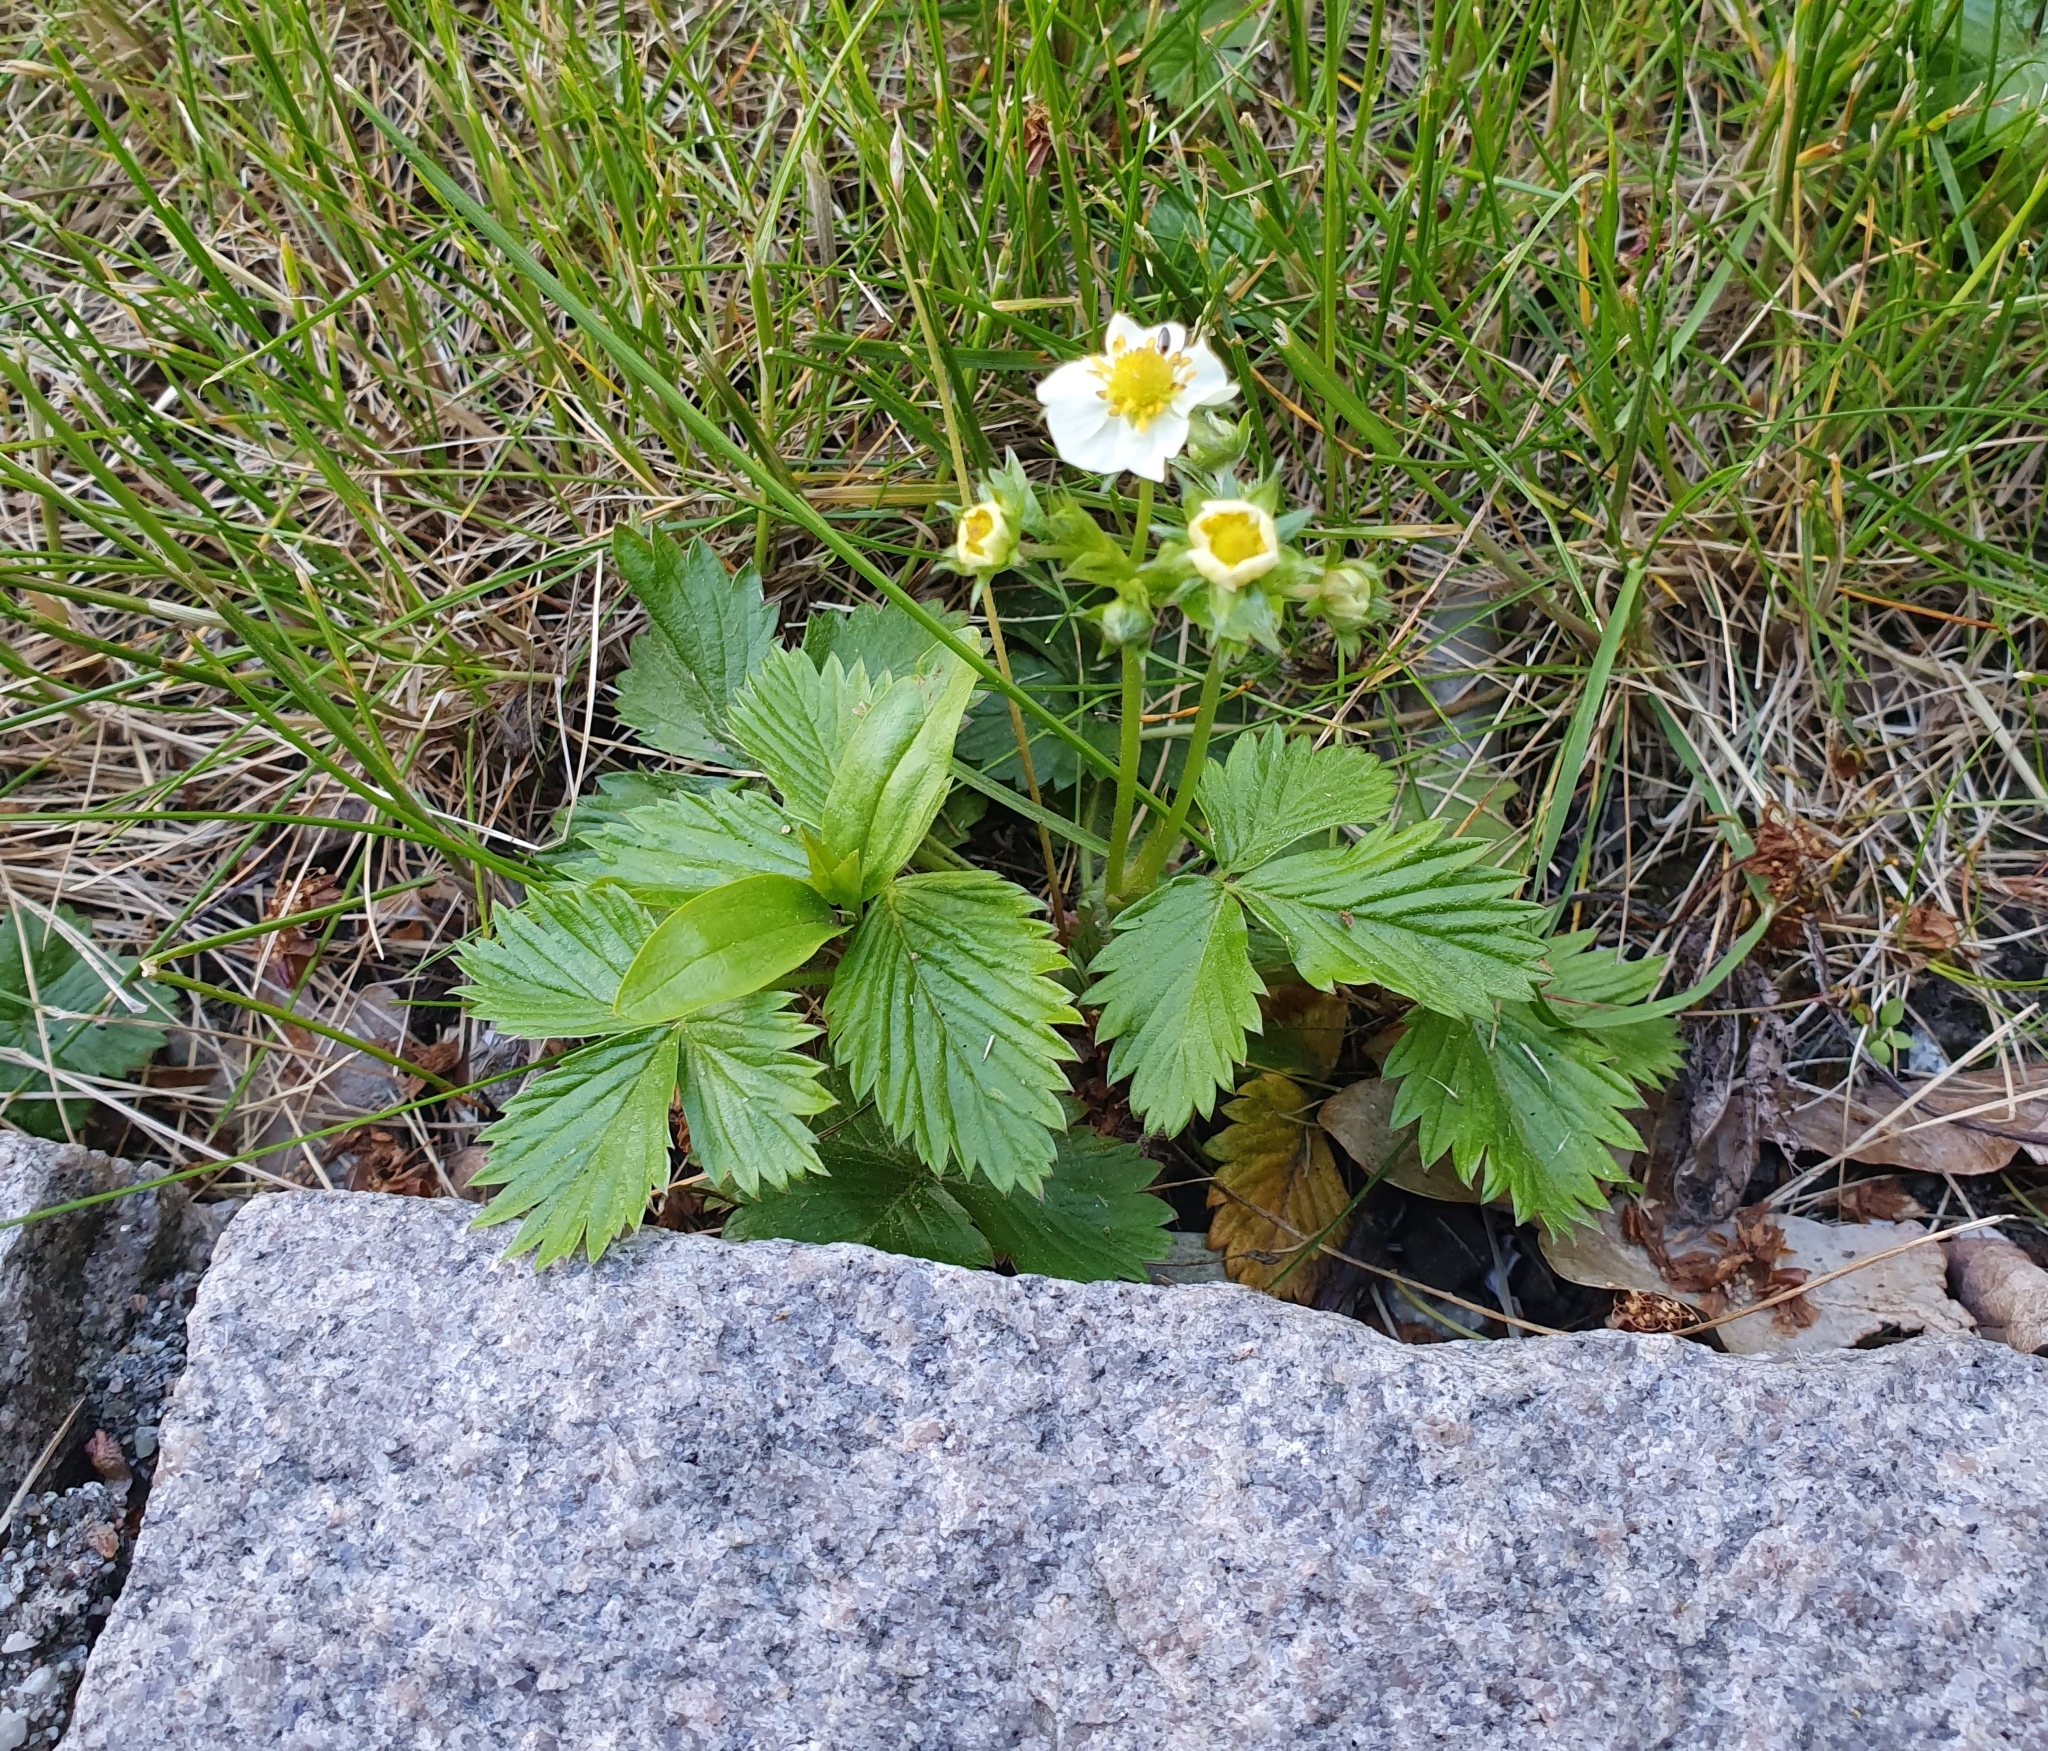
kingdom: Plantae
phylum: Tracheophyta
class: Magnoliopsida
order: Rosales
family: Rosaceae
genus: Fragaria
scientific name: Fragaria vesca
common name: Wild strawberry
